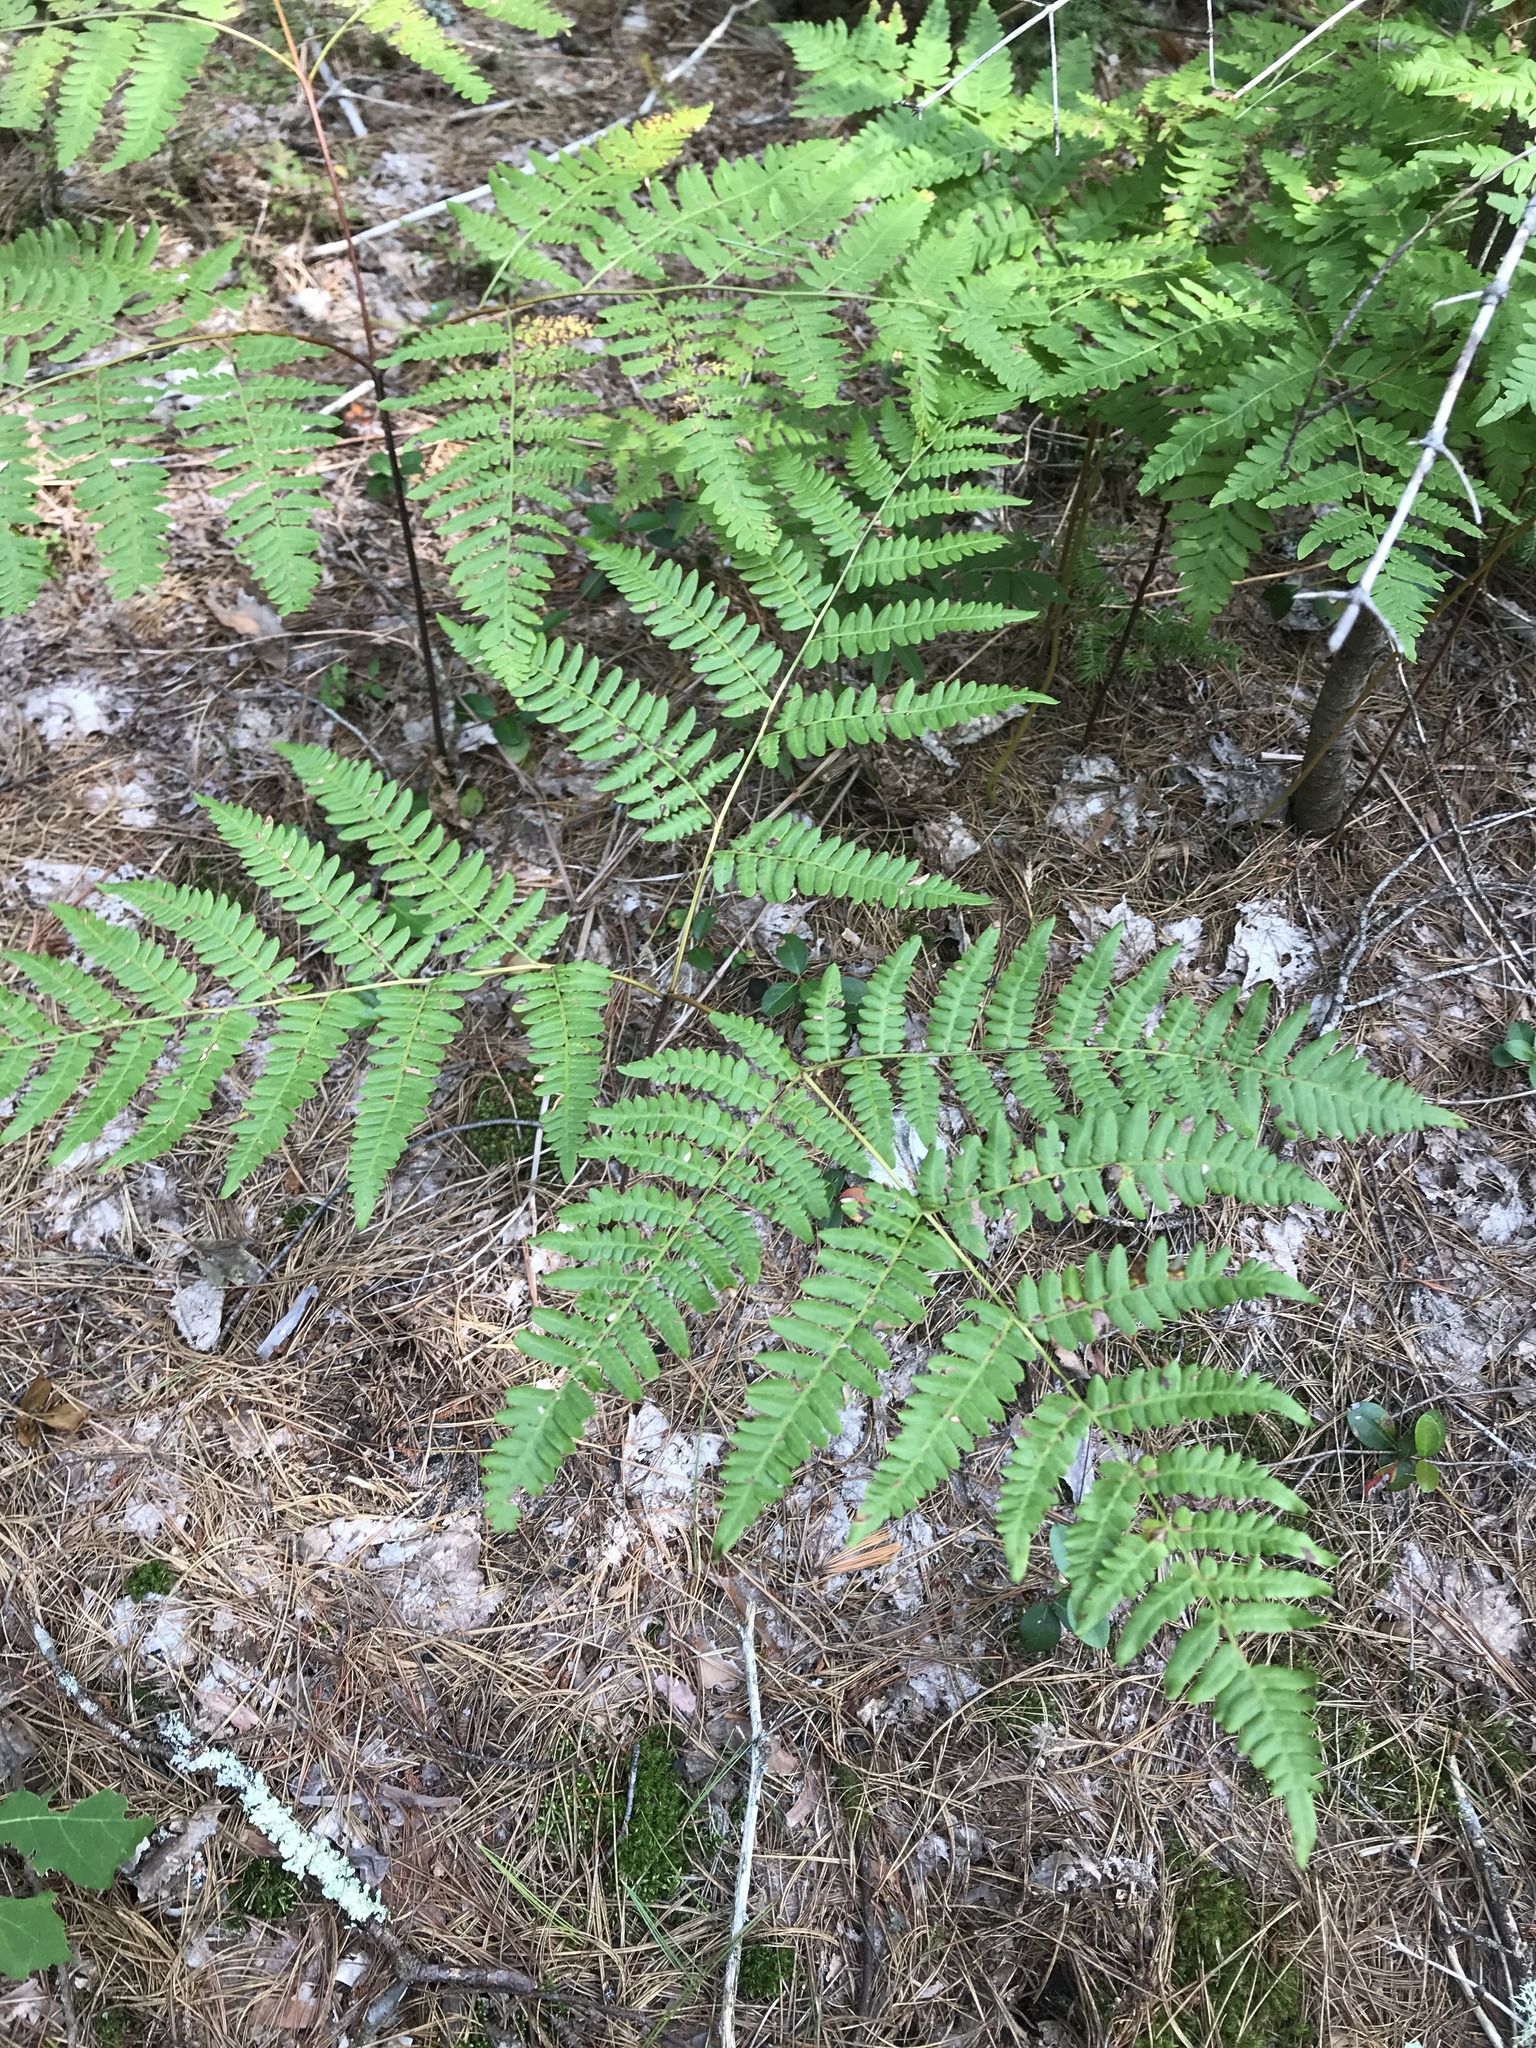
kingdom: Plantae
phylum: Tracheophyta
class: Polypodiopsida
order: Polypodiales
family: Dennstaedtiaceae
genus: Pteridium
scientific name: Pteridium aquilinum
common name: Bracken
